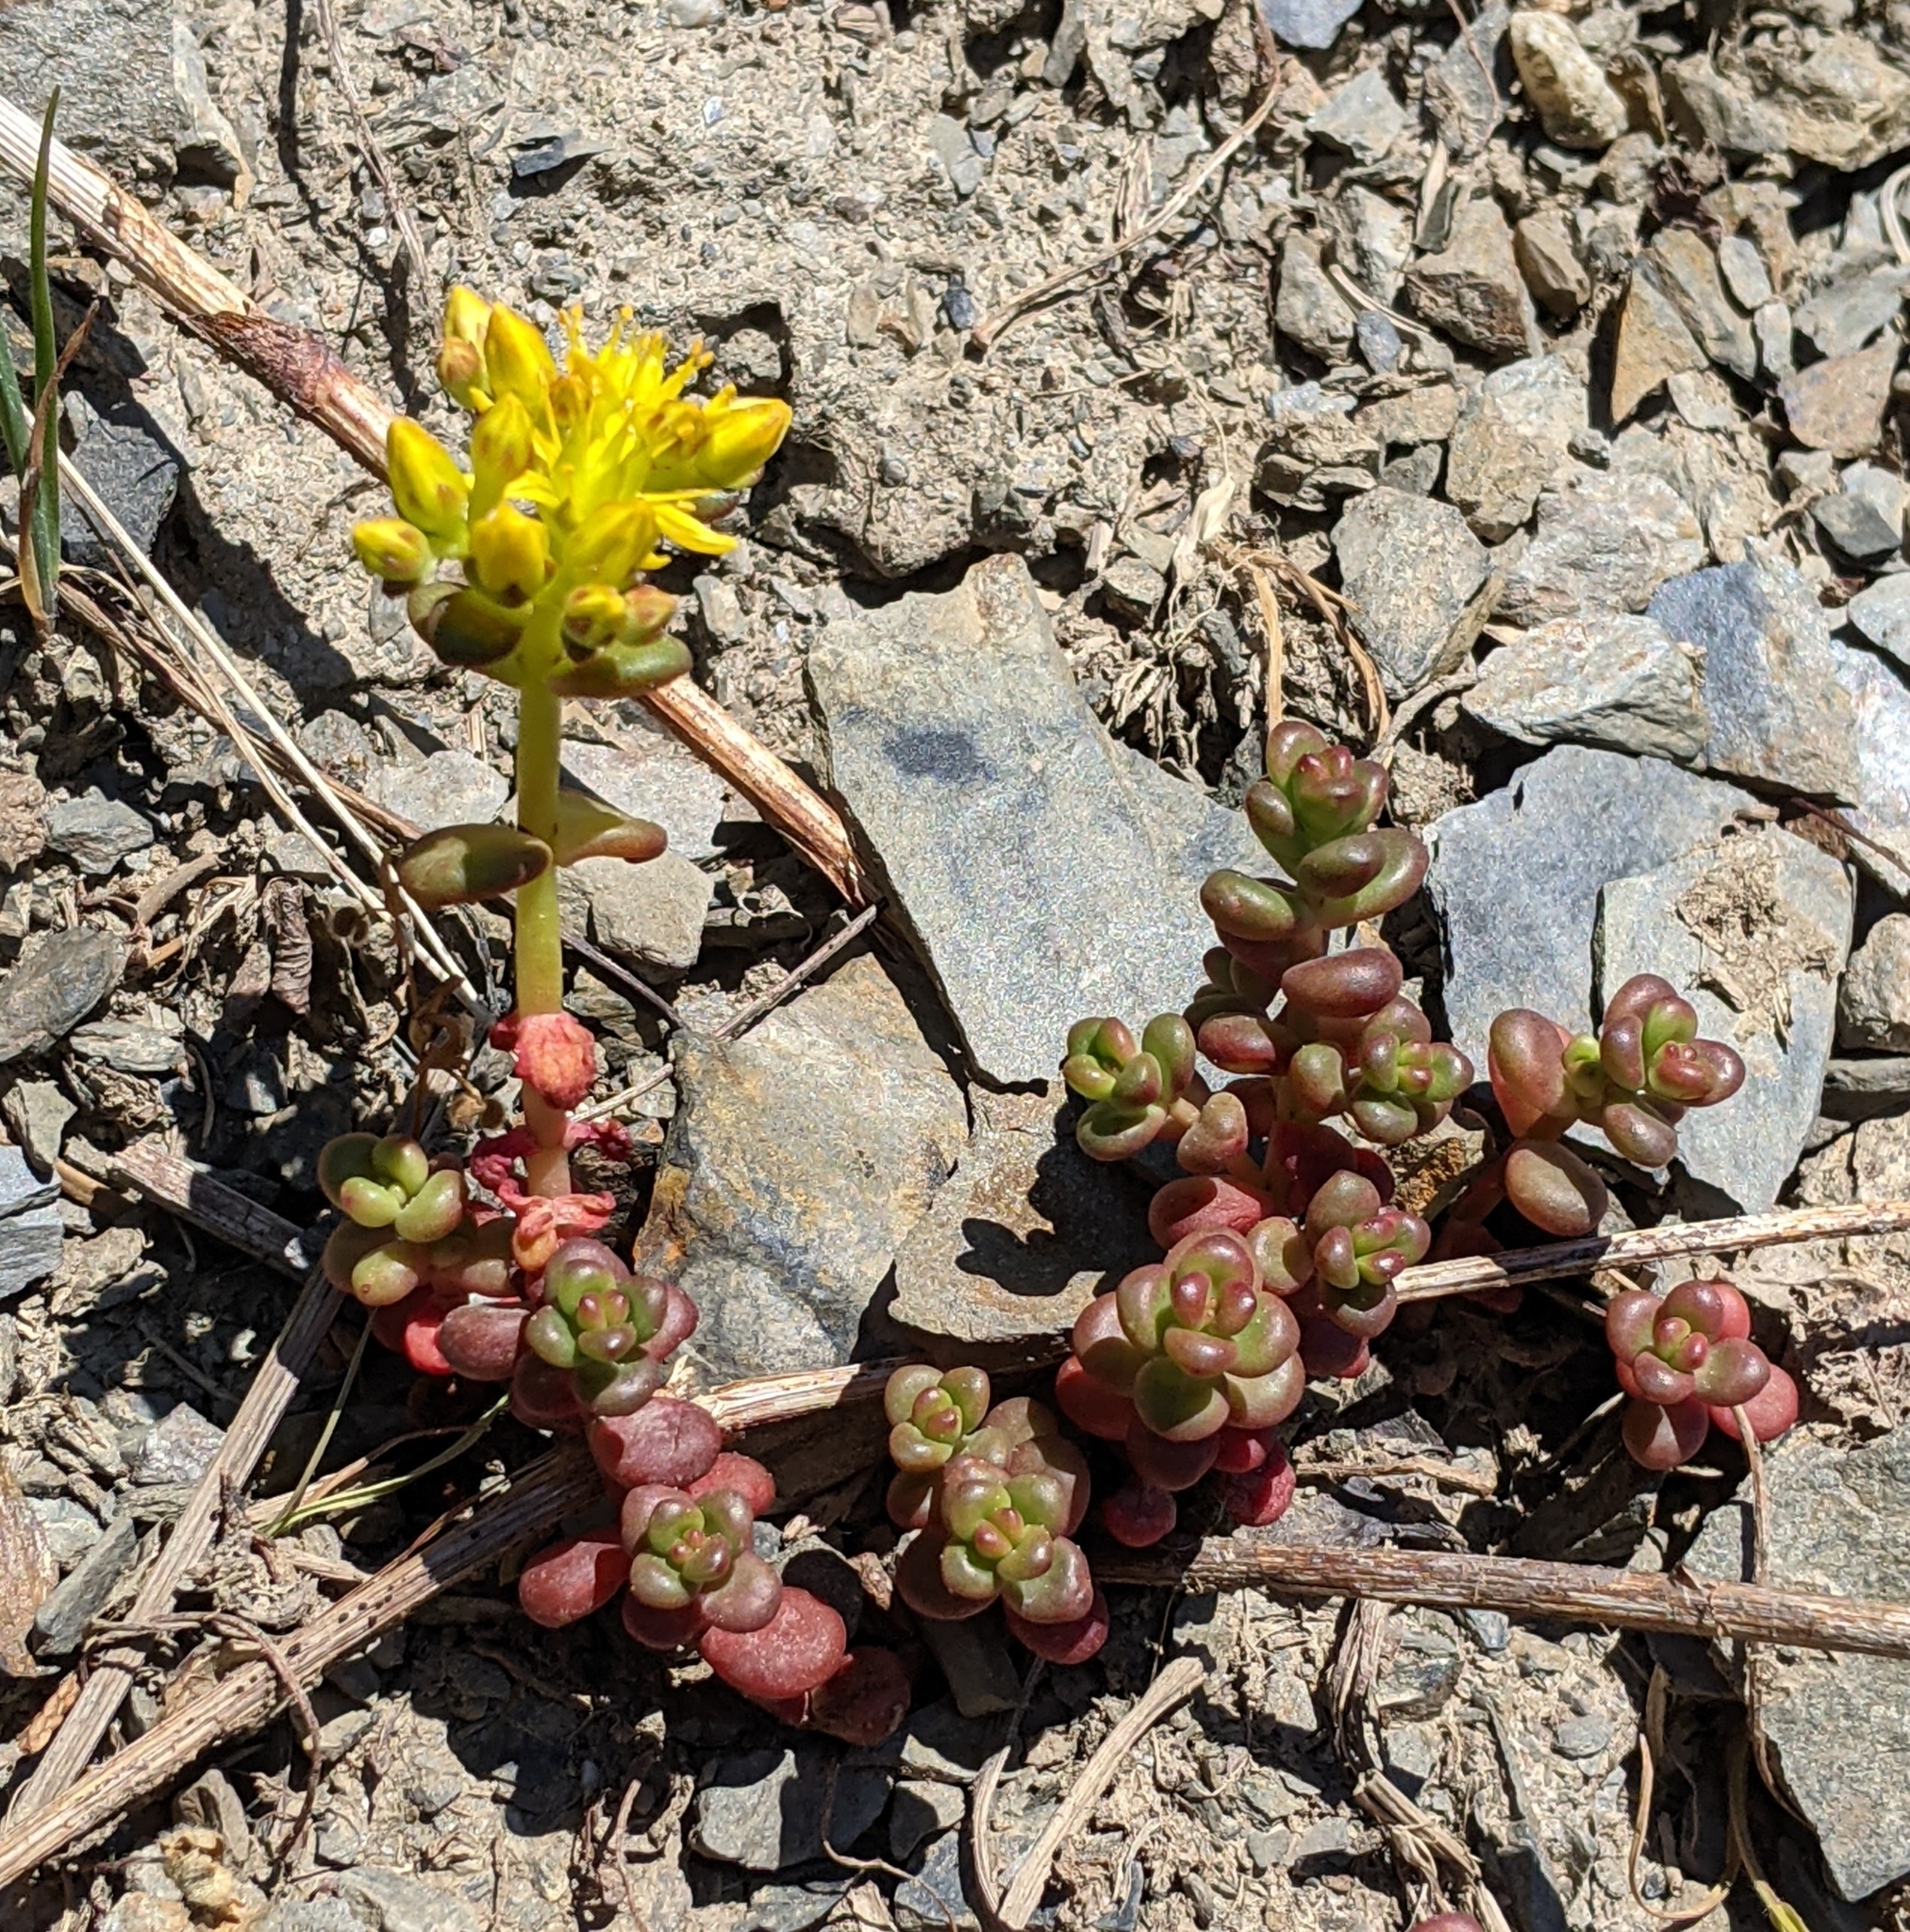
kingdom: Plantae
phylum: Tracheophyta
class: Magnoliopsida
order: Saxifragales
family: Crassulaceae
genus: Sedum
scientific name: Sedum divergens
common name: Cascade stonecrop
